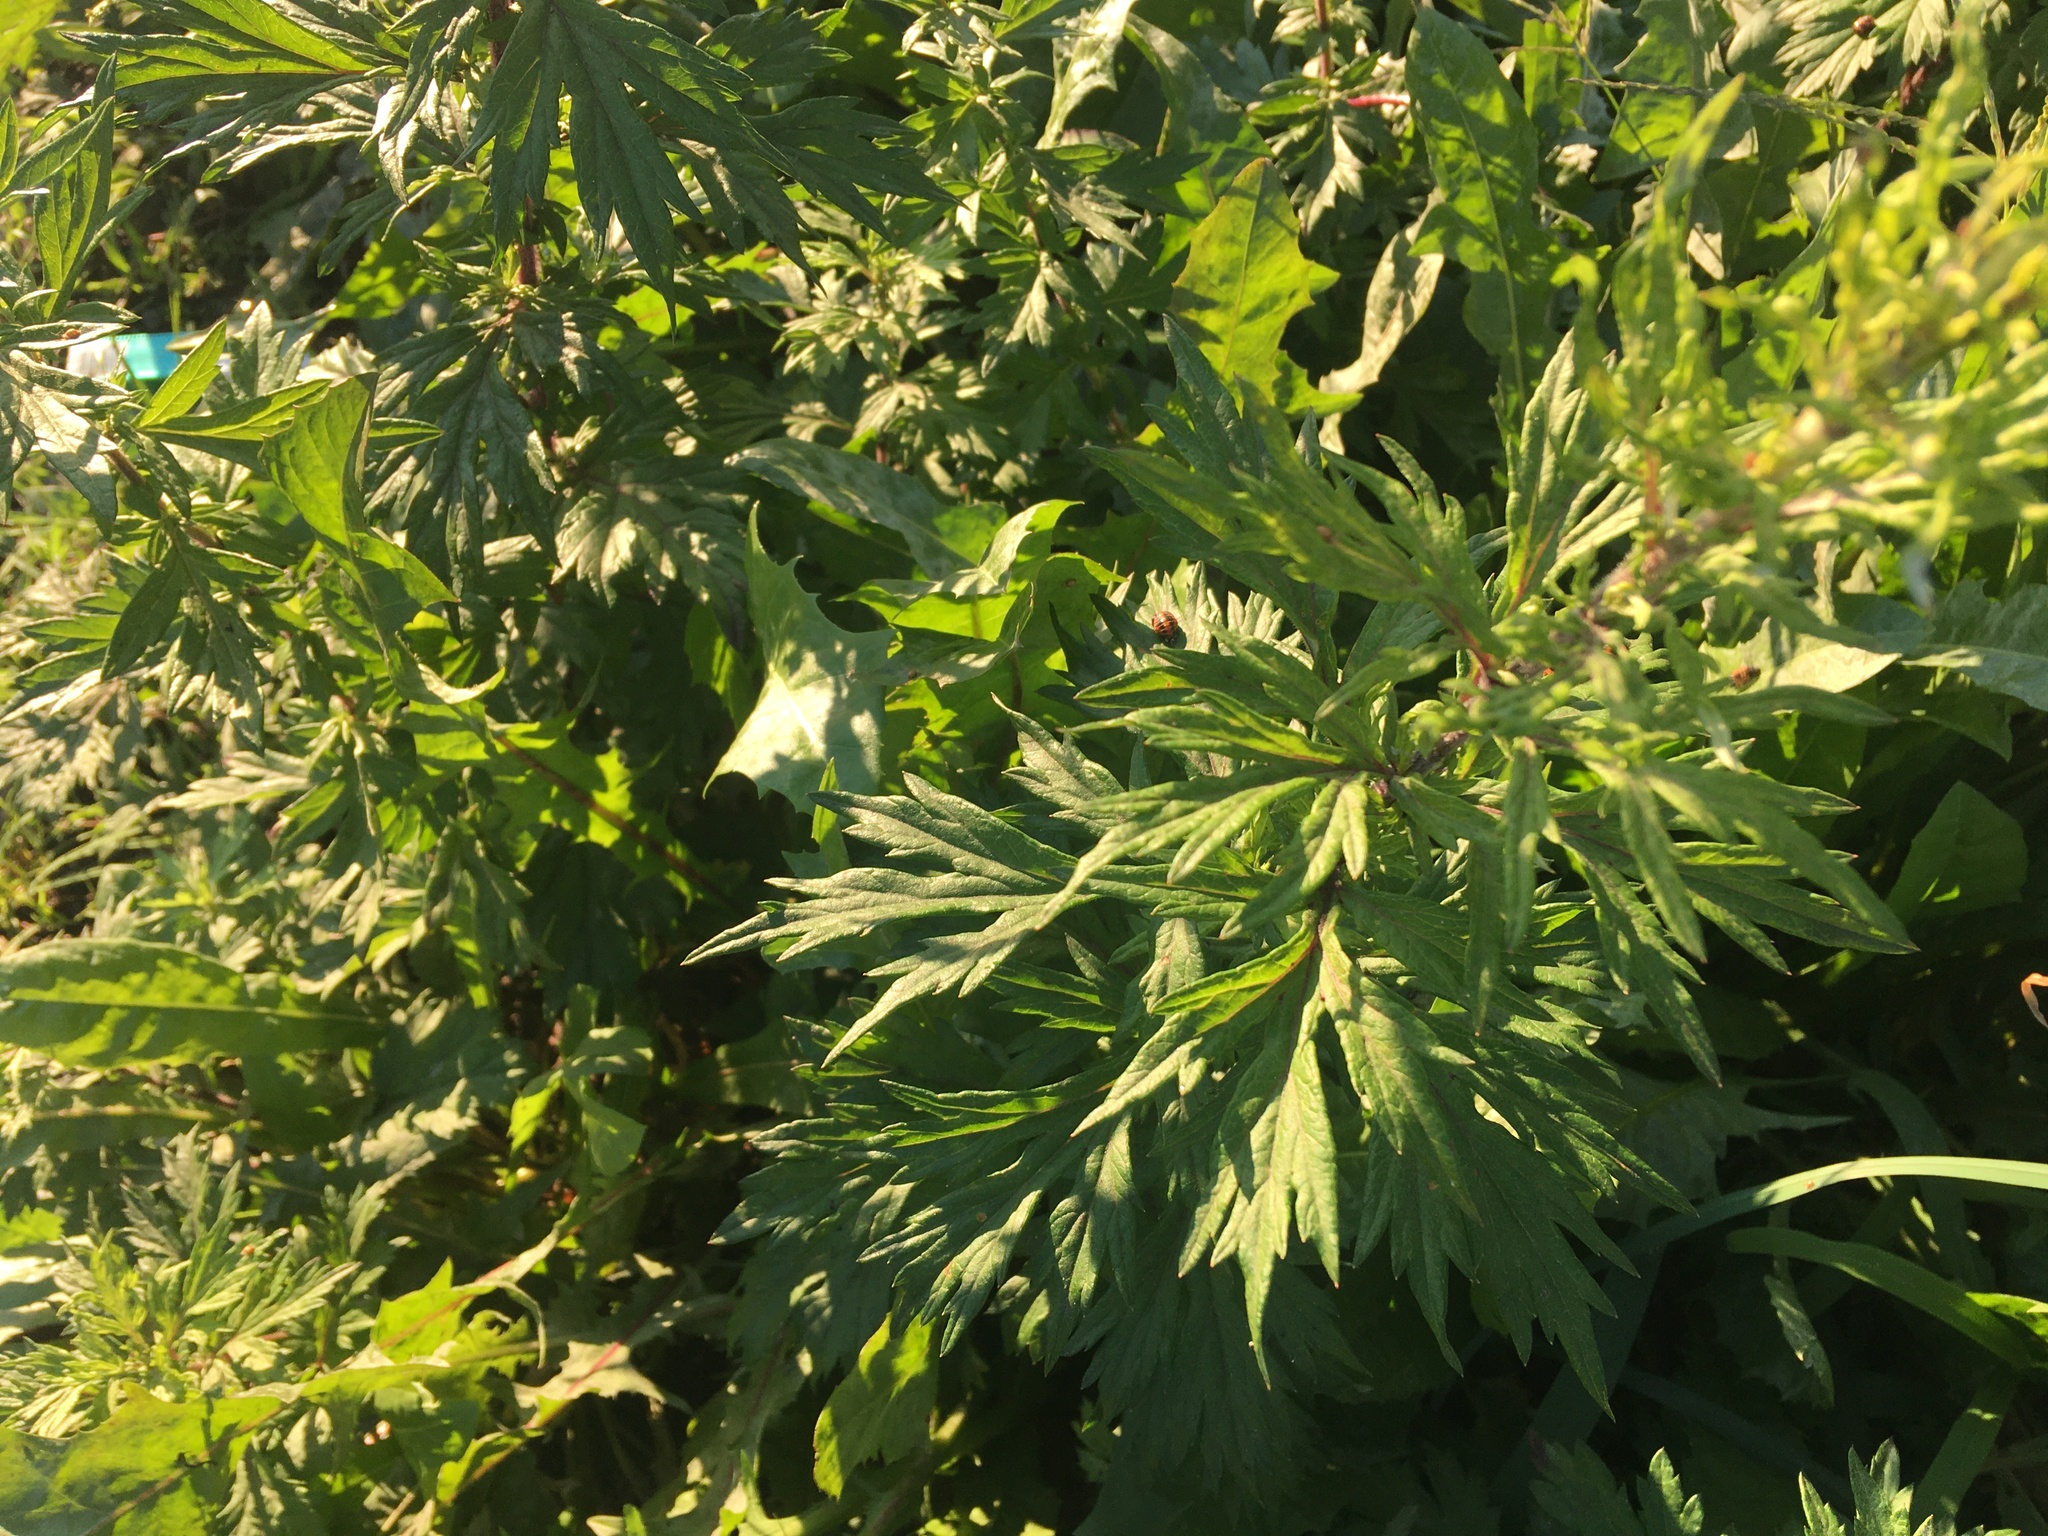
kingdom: Plantae
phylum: Tracheophyta
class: Magnoliopsida
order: Asterales
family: Asteraceae
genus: Artemisia
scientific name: Artemisia vulgaris
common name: Mugwort
